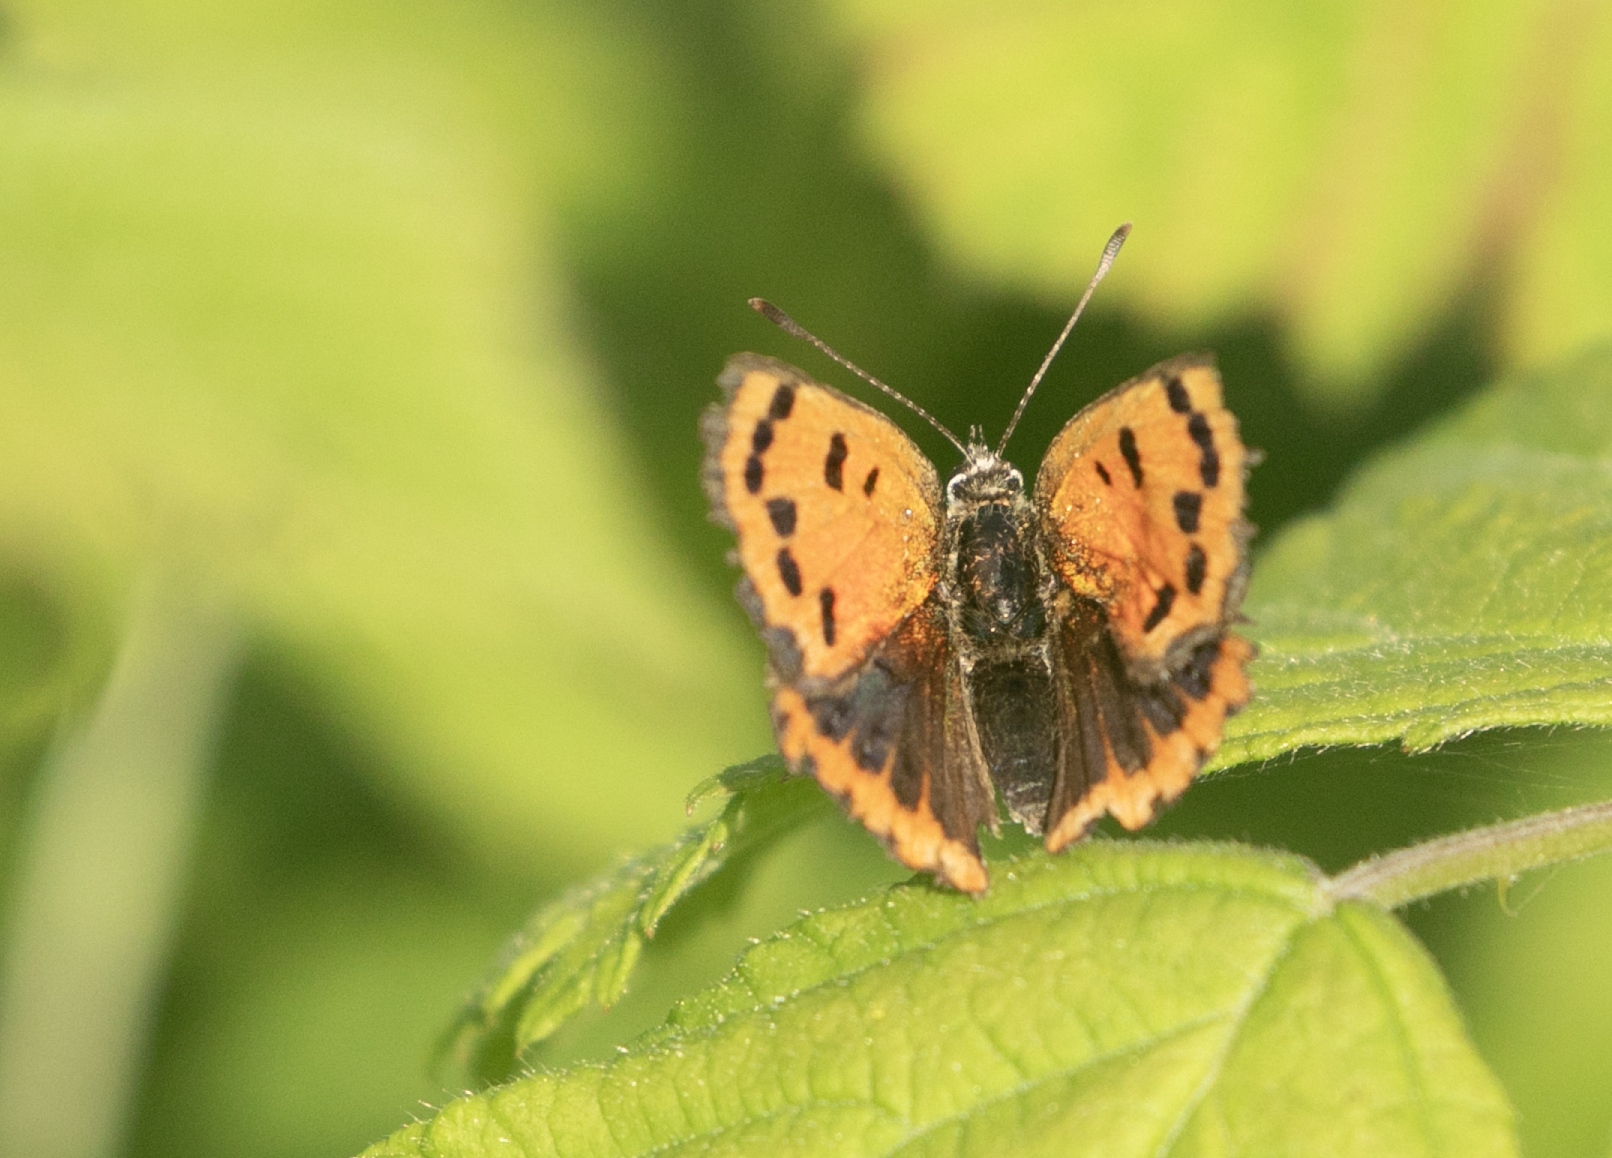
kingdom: Animalia
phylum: Arthropoda
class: Insecta
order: Lepidoptera
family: Lycaenidae
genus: Lycaena
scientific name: Lycaena phlaeas
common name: Small copper
